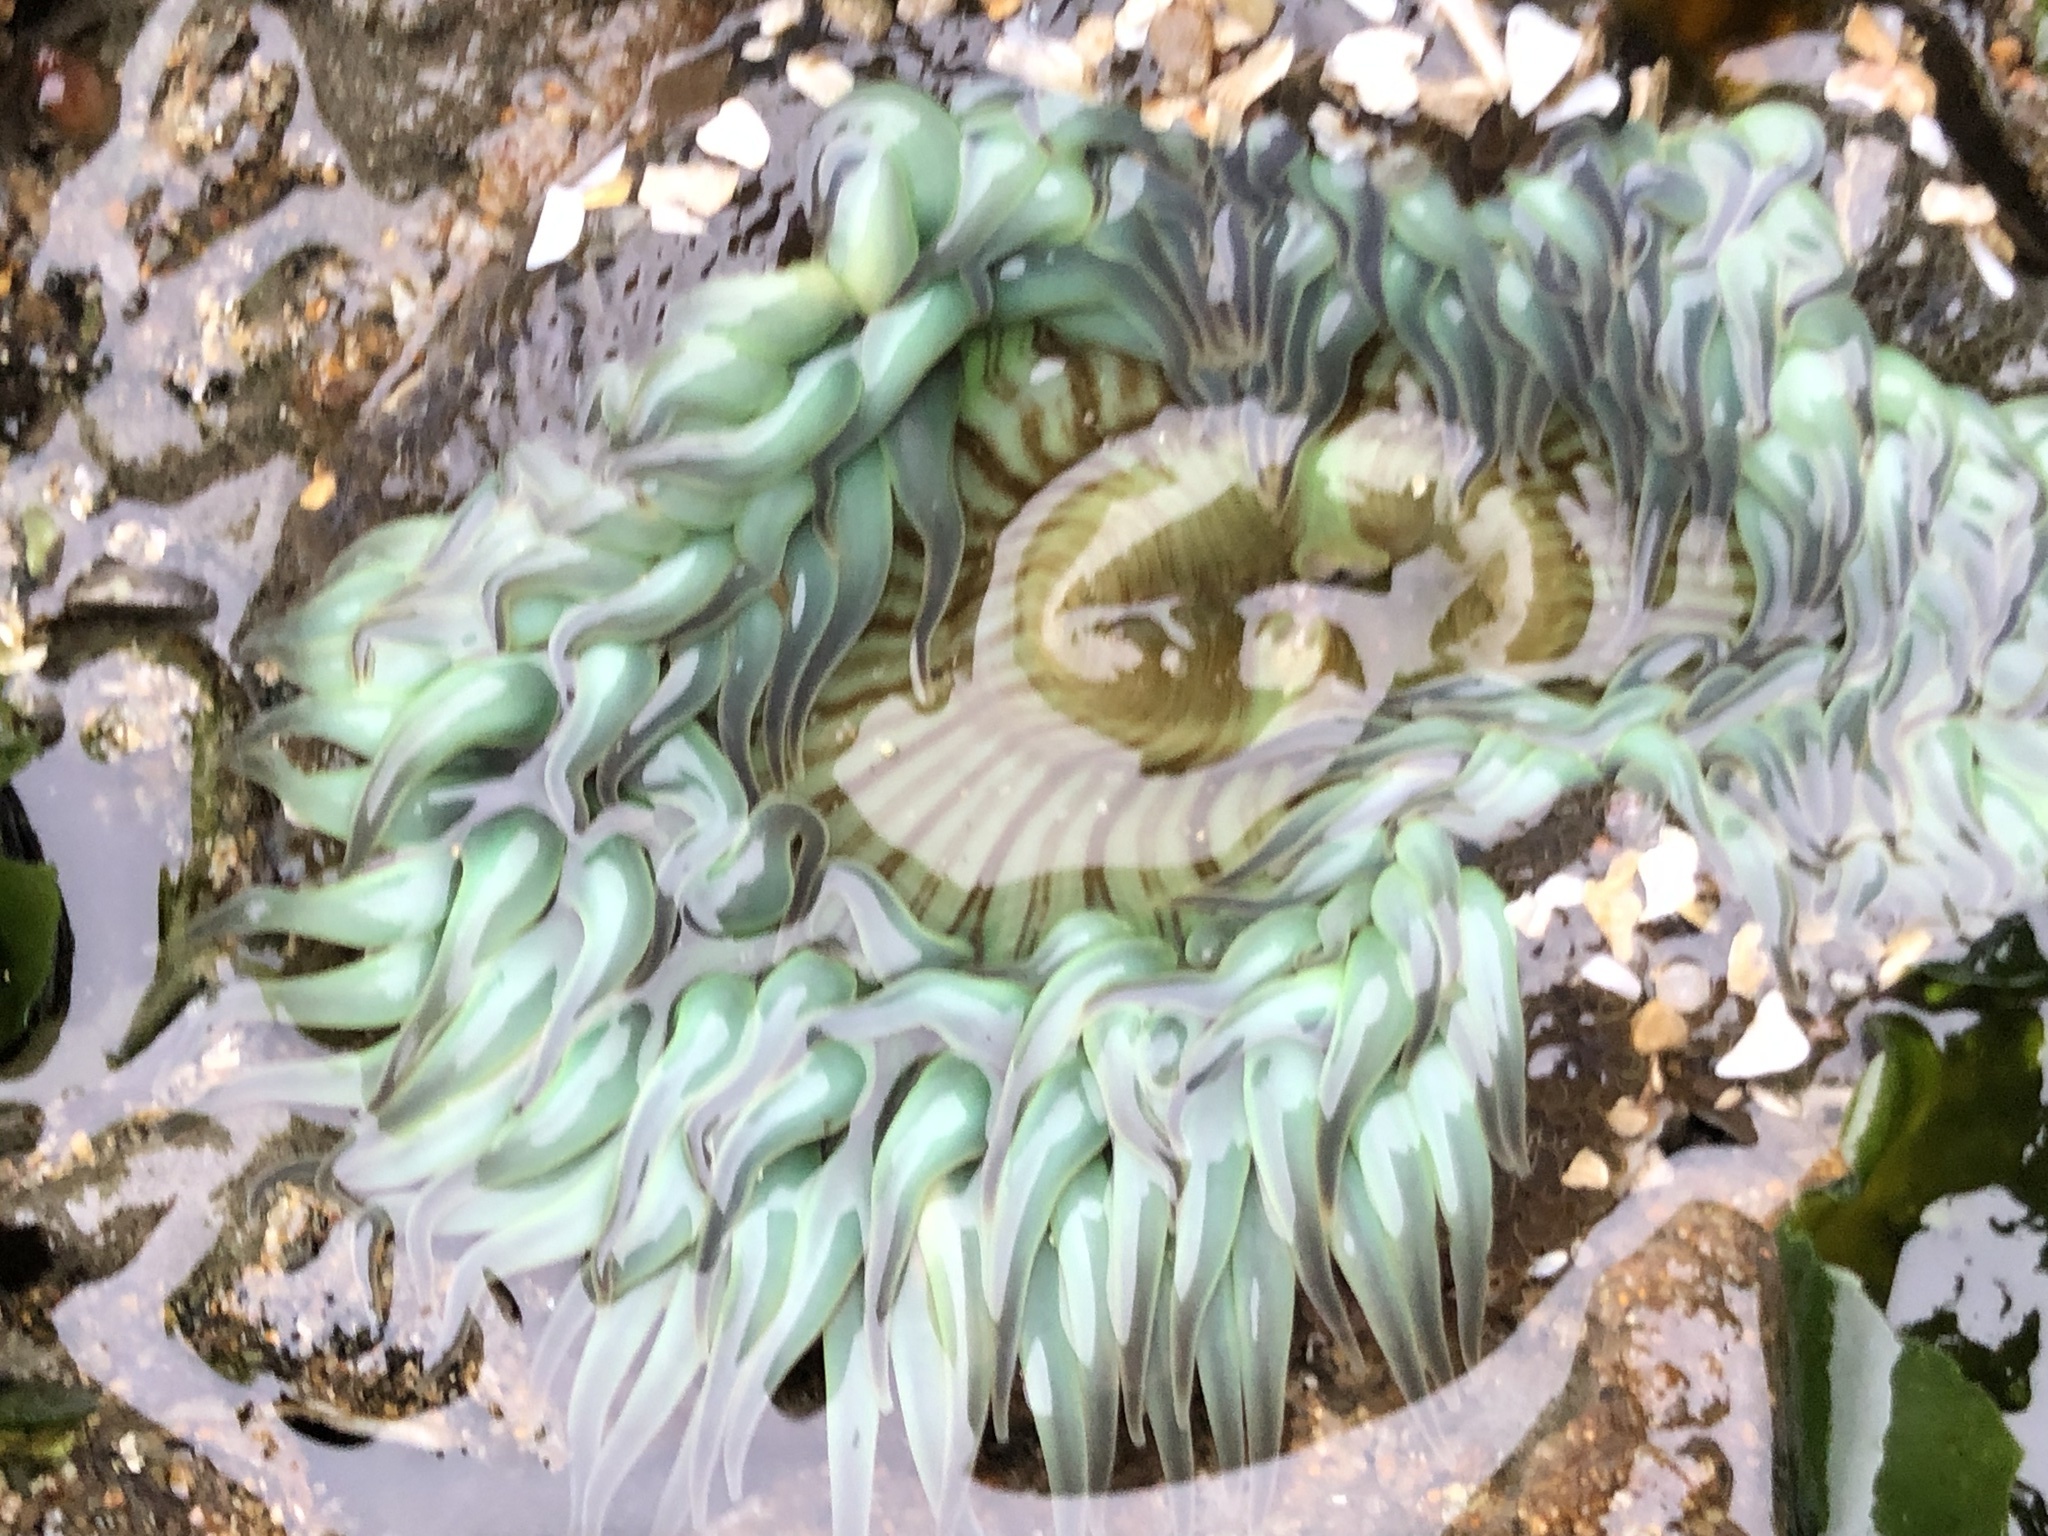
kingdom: Animalia
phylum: Cnidaria
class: Anthozoa
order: Actiniaria
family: Actiniidae
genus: Anthopleura
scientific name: Anthopleura sola
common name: Sun anemone
